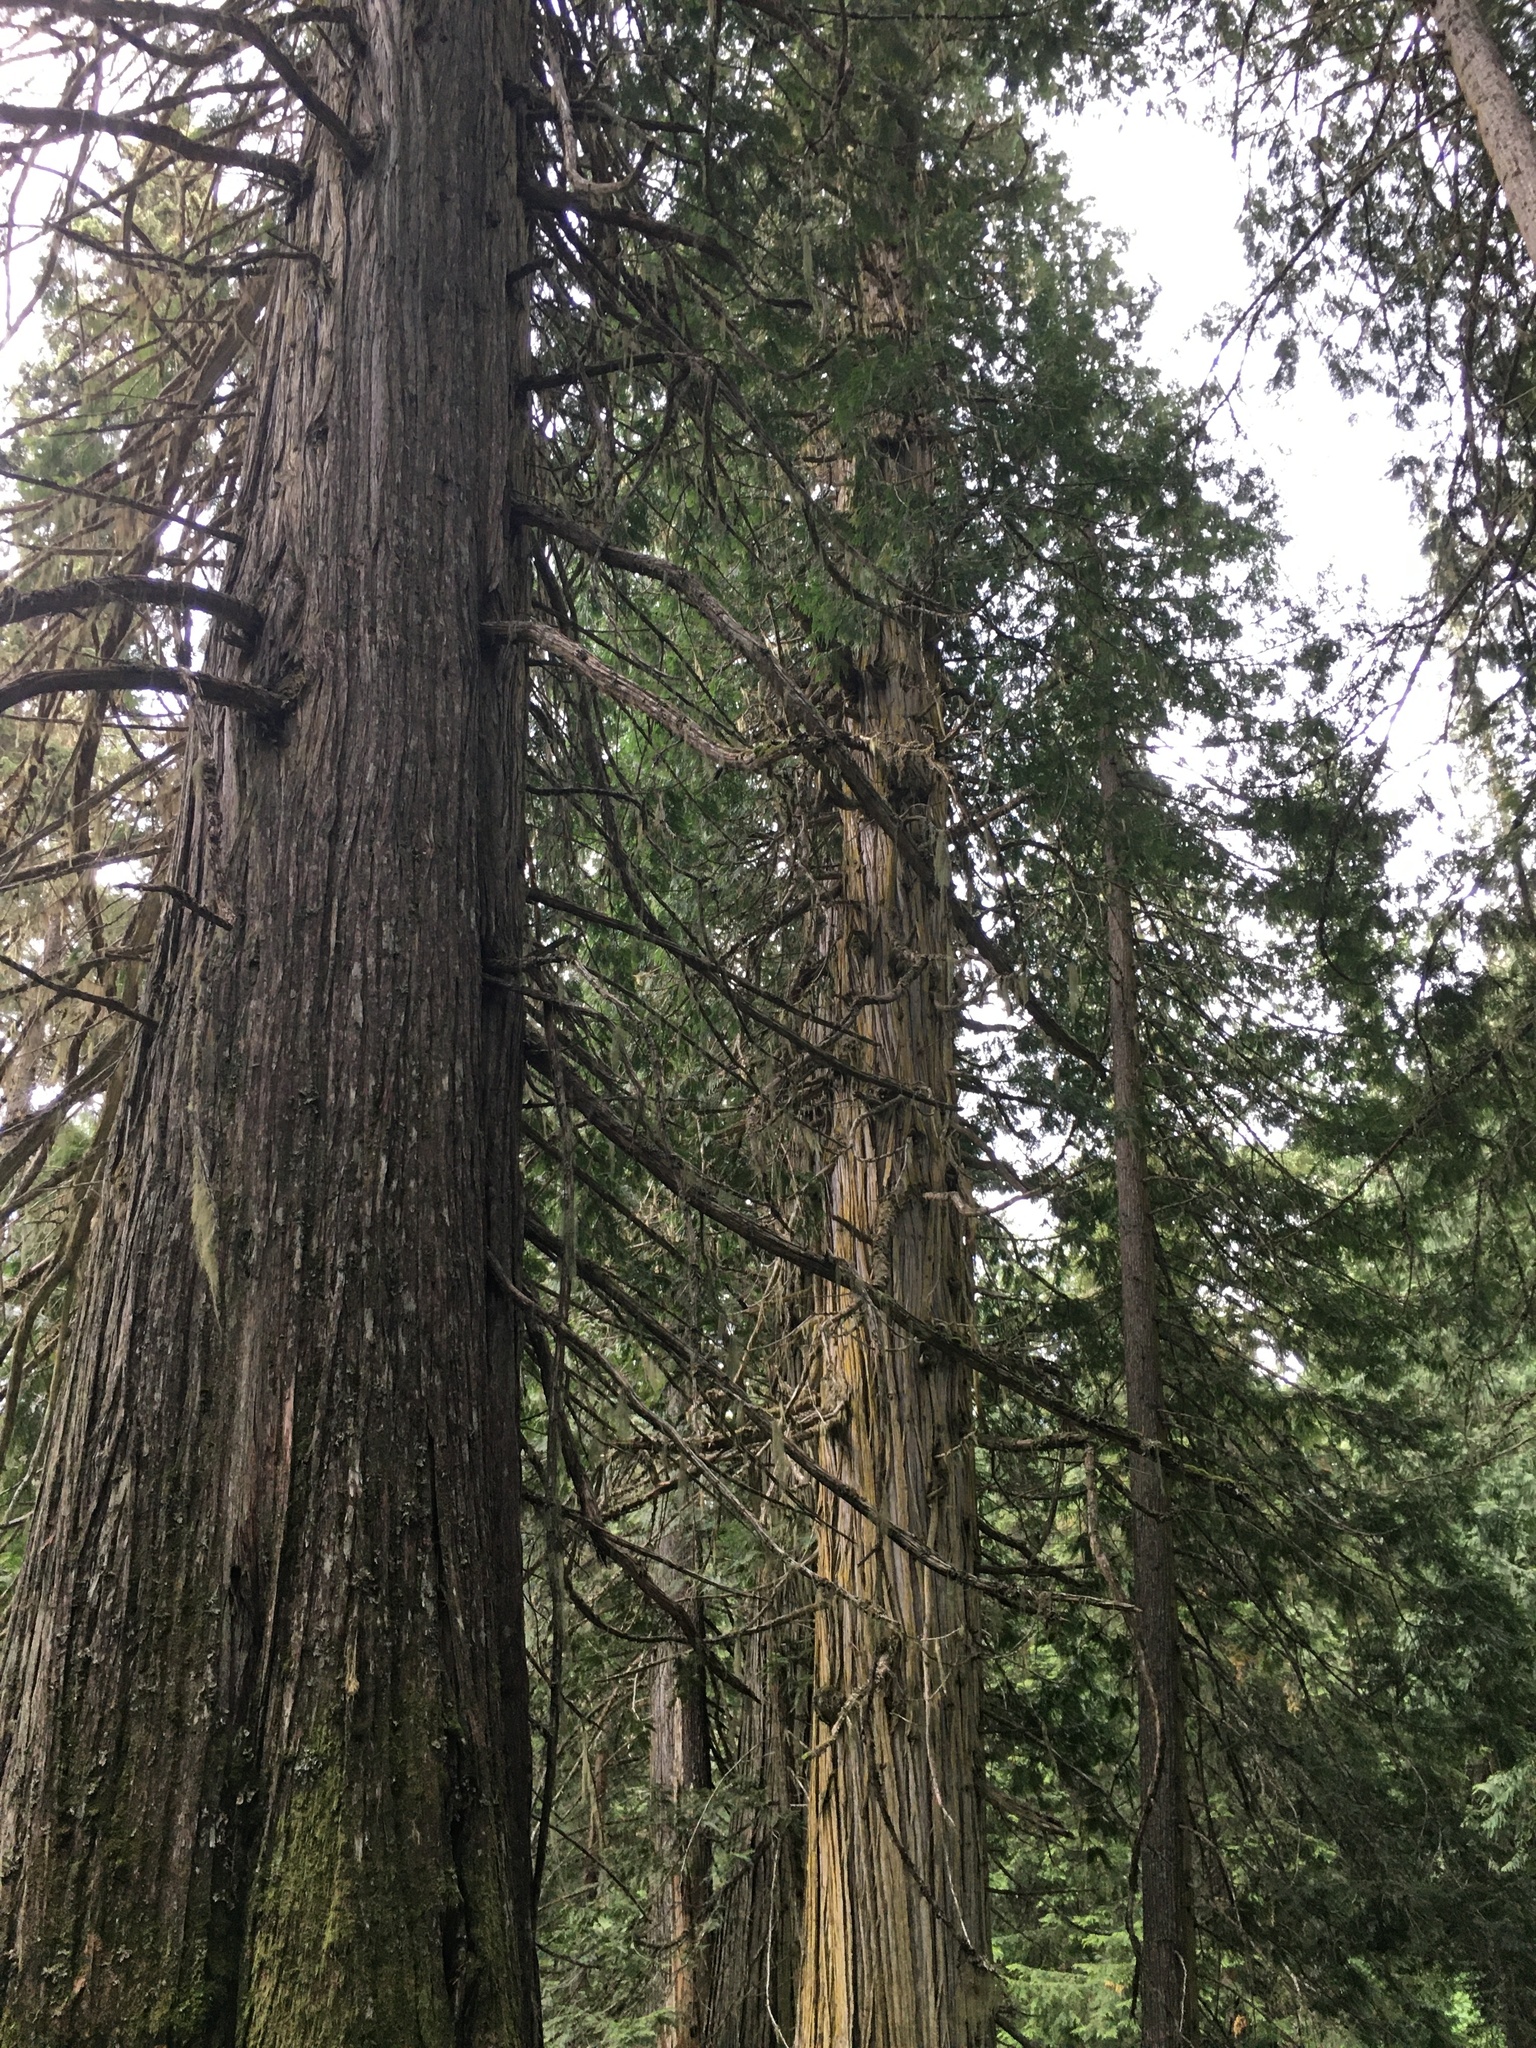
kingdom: Plantae
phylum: Tracheophyta
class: Pinopsida
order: Pinales
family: Cupressaceae
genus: Thuja
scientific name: Thuja plicata
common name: Western red-cedar
